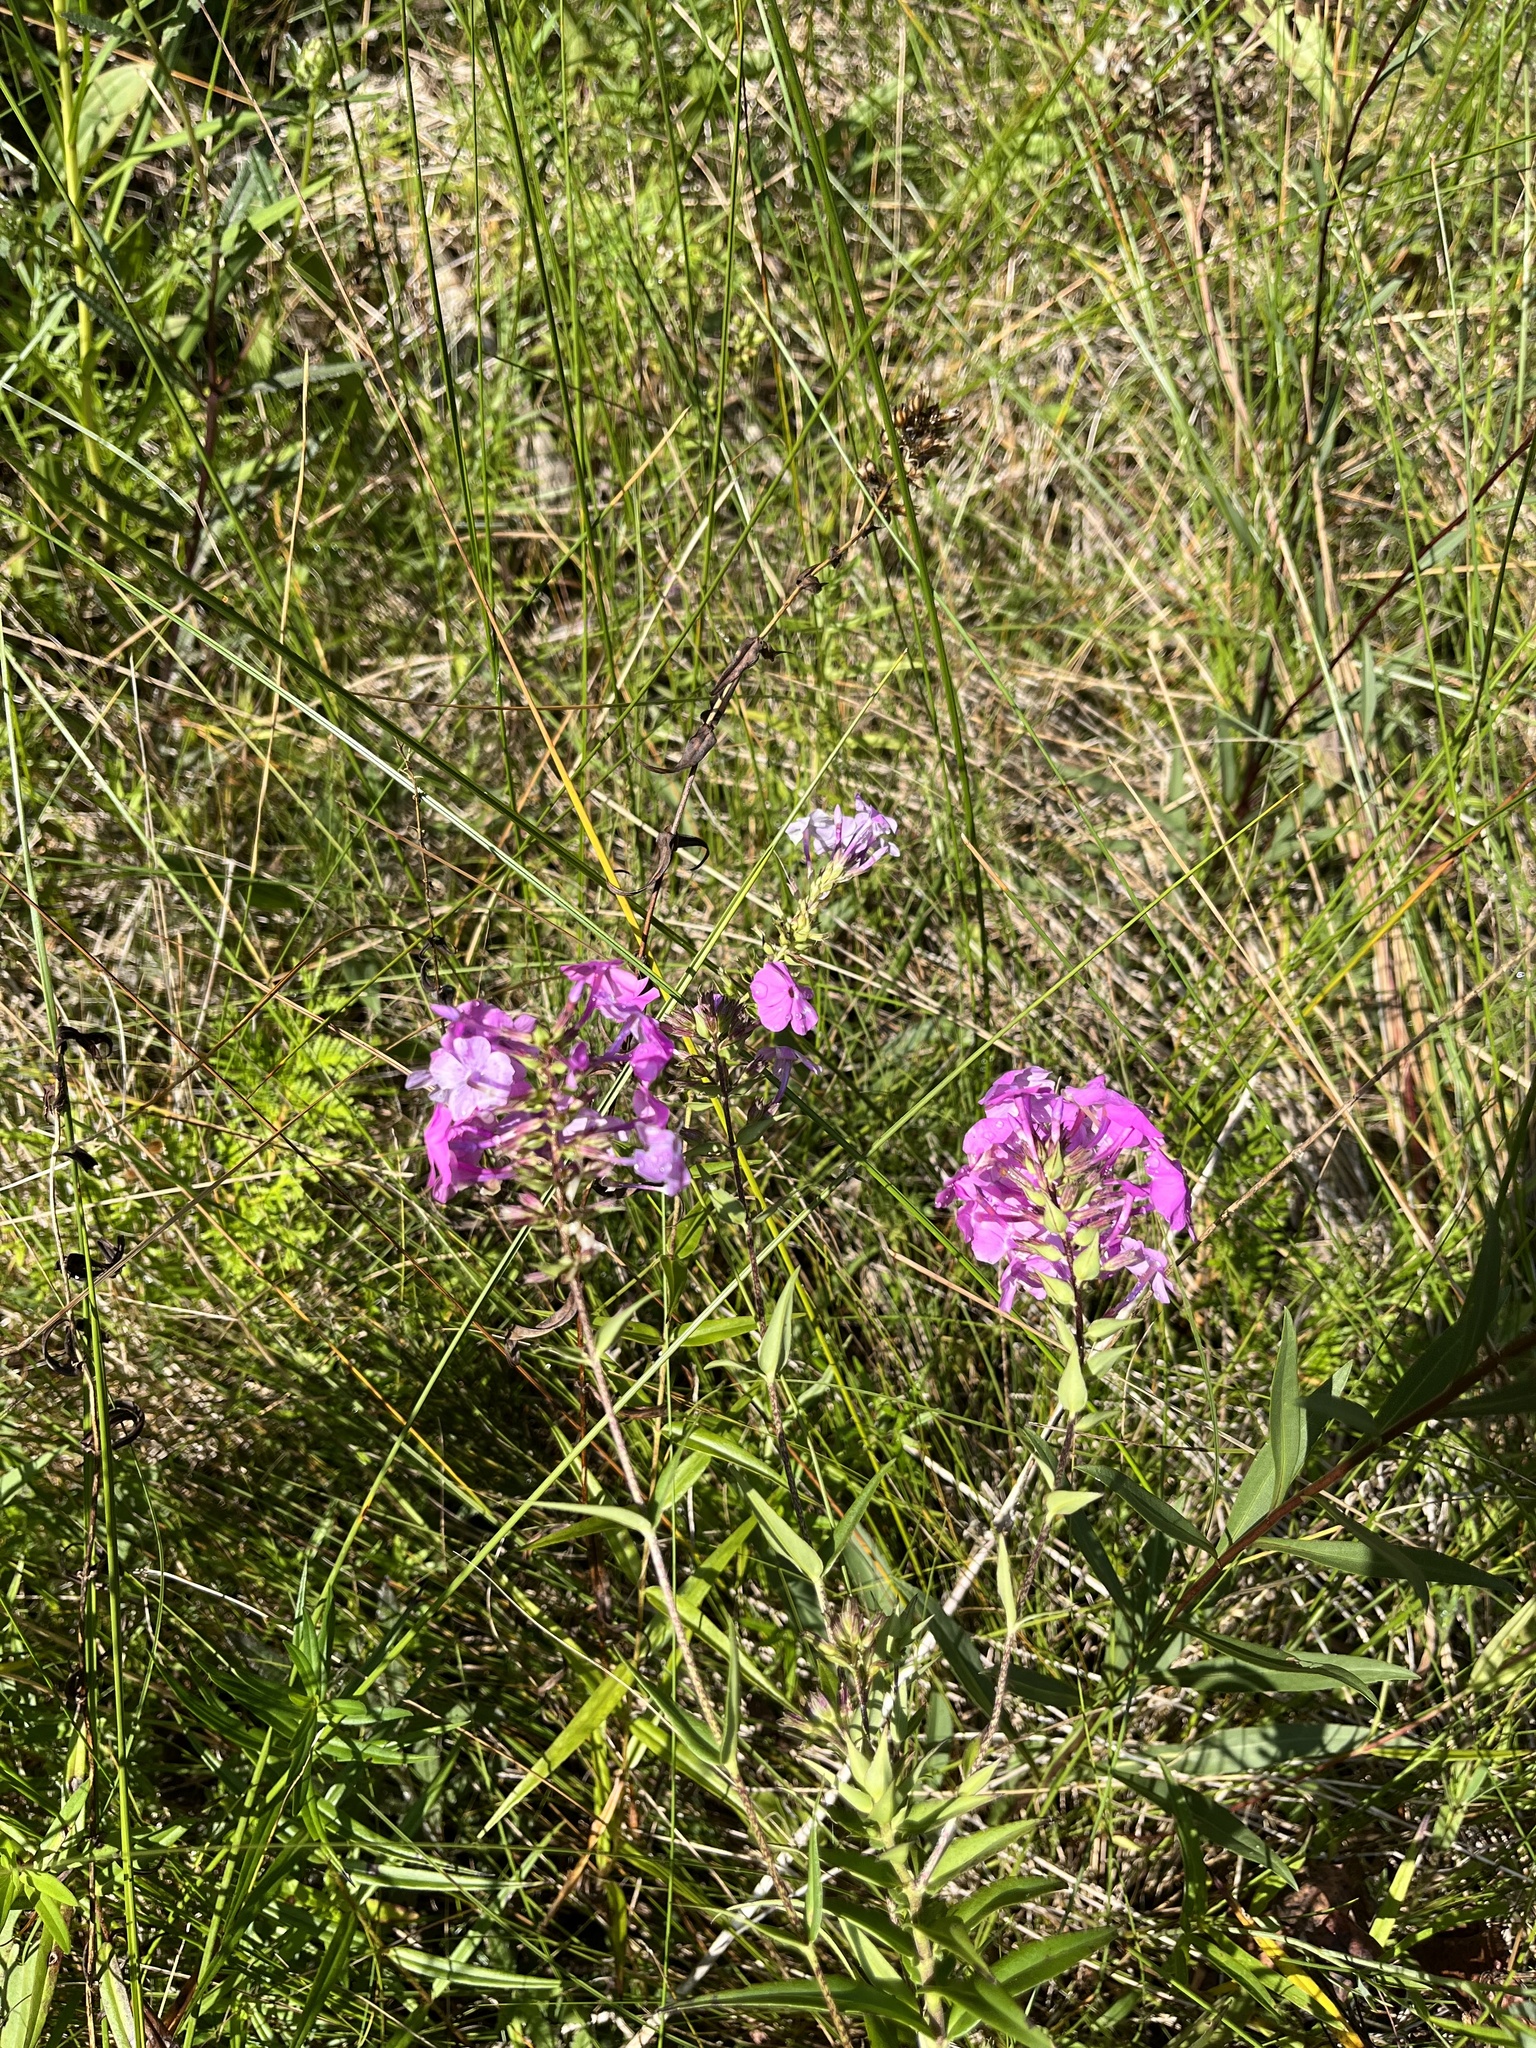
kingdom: Plantae
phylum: Tracheophyta
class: Magnoliopsida
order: Ericales
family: Polemoniaceae
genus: Phlox
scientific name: Phlox maculata
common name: Meadow phlox
